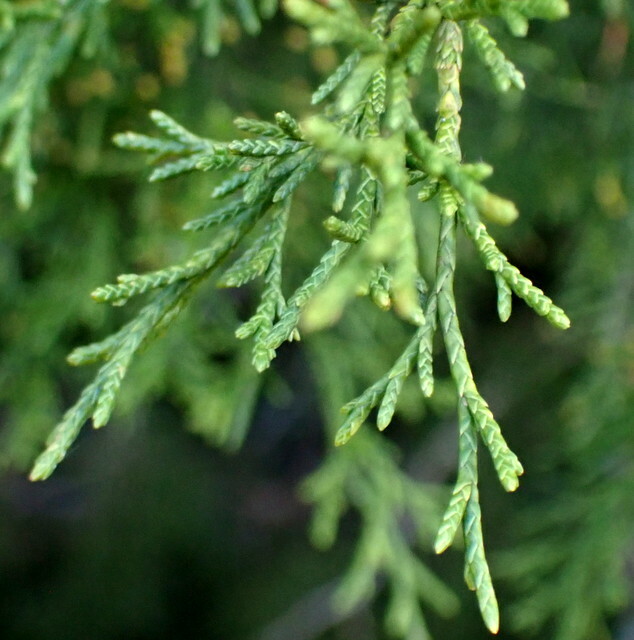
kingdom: Plantae
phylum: Tracheophyta
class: Pinopsida
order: Pinales
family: Cupressaceae
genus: Juniperus
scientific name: Juniperus virginiana
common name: Red juniper
